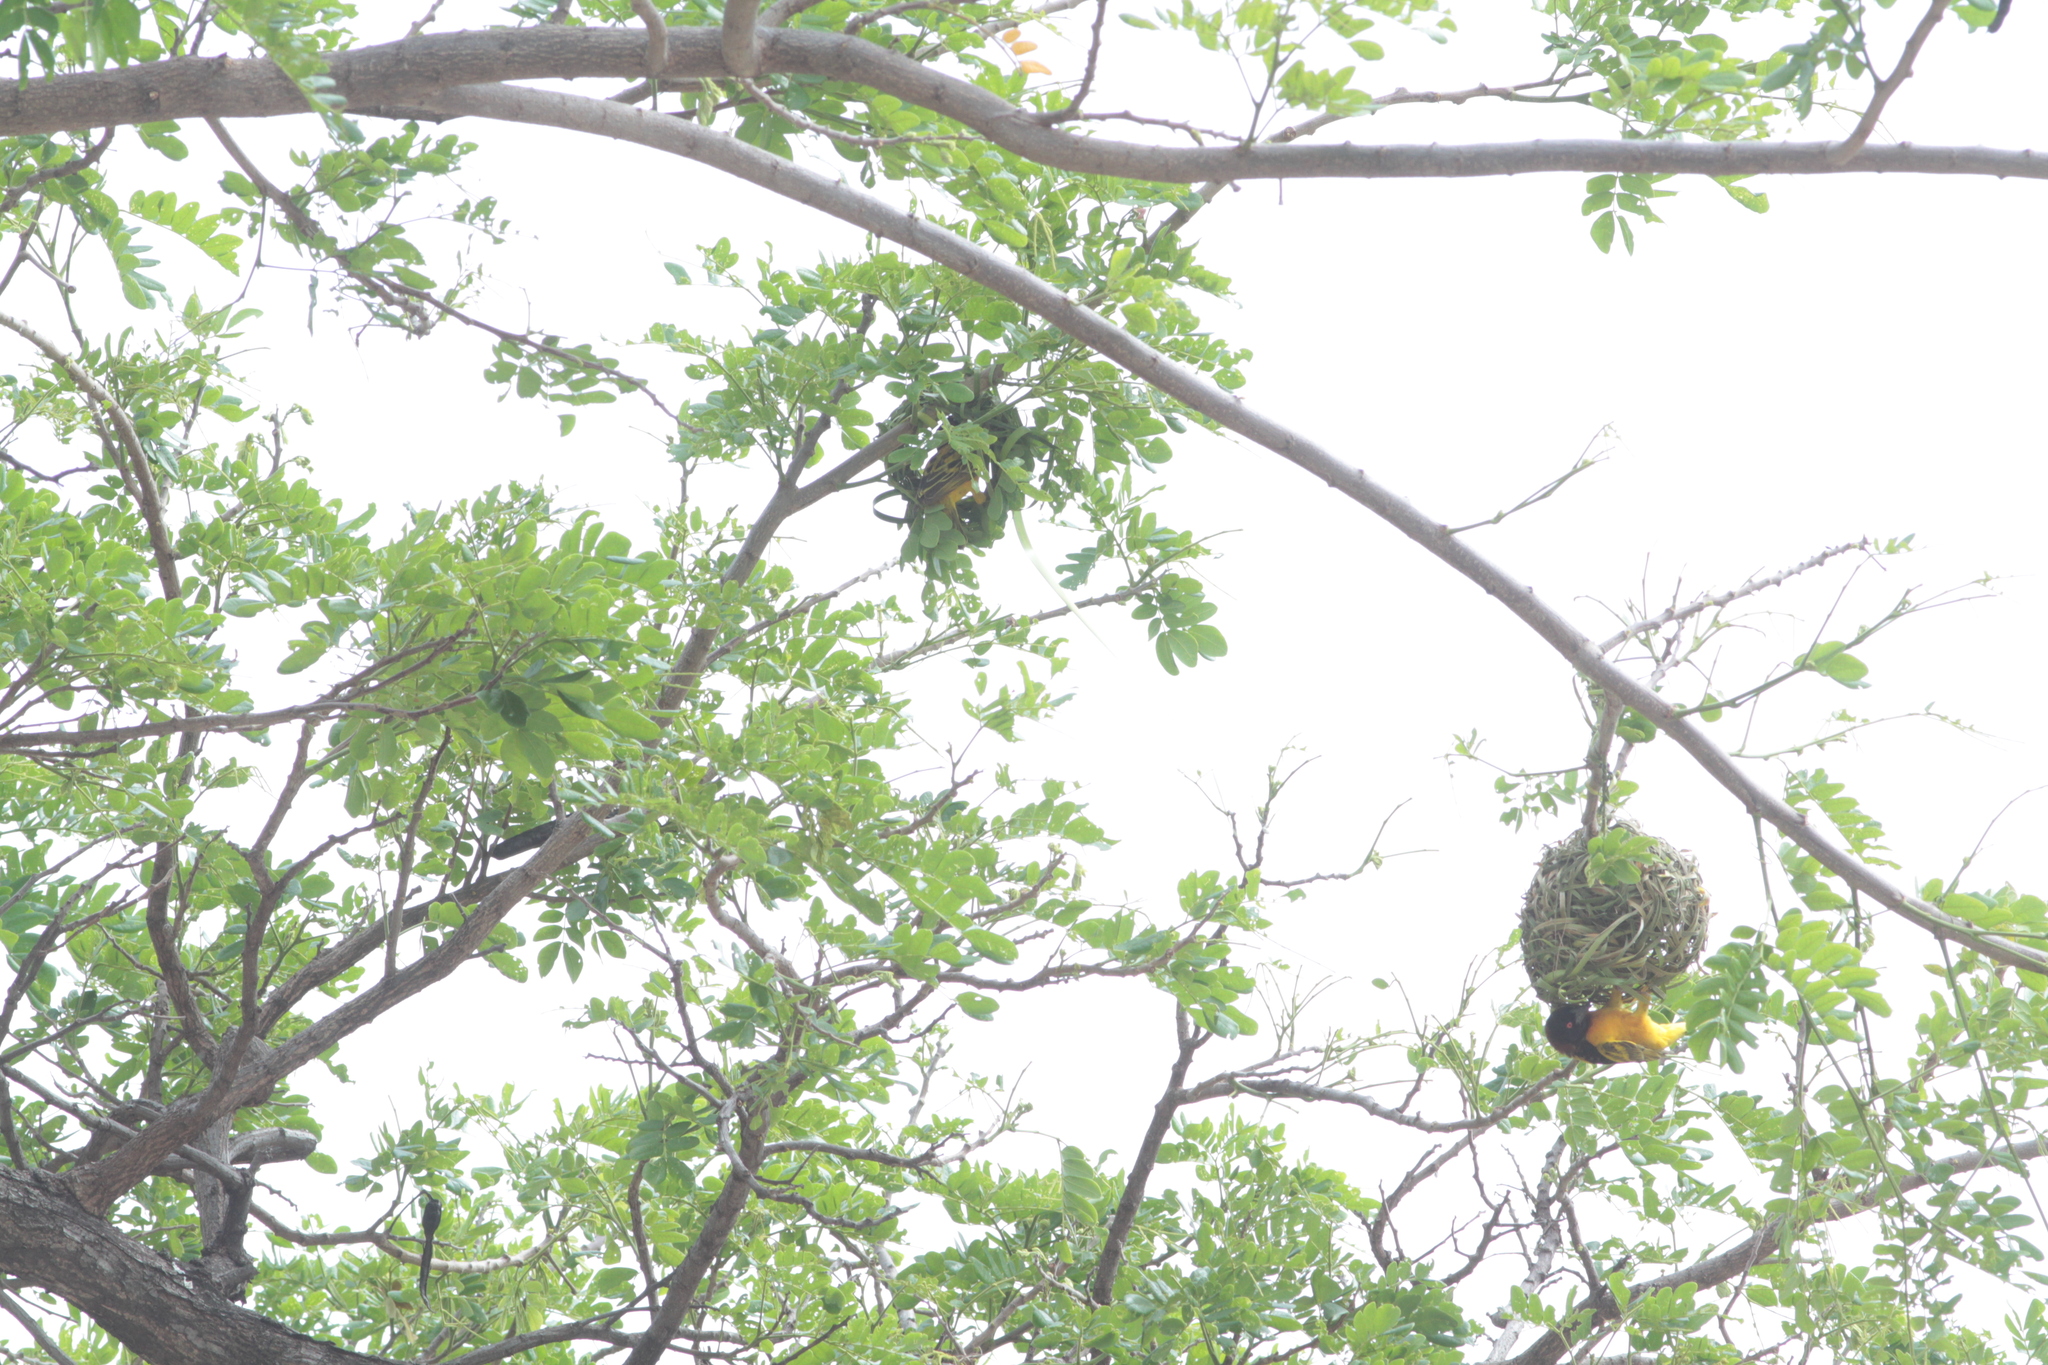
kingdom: Animalia
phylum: Chordata
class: Aves
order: Passeriformes
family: Ploceidae
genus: Ploceus
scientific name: Ploceus cucullatus
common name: Village weaver
